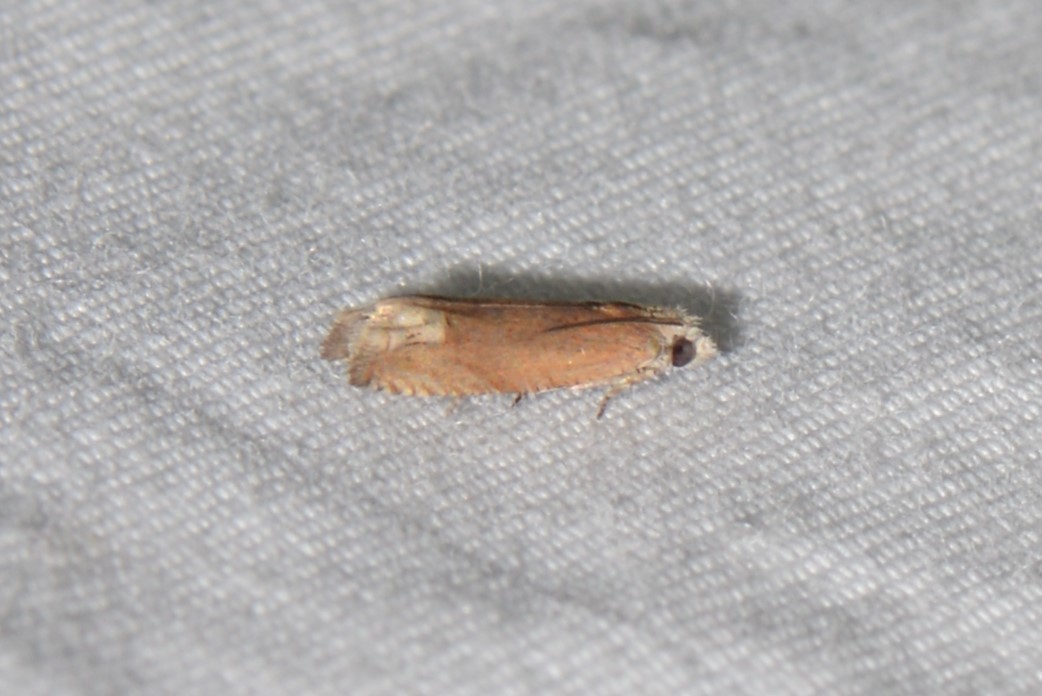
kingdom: Animalia
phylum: Arthropoda
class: Insecta
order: Lepidoptera
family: Tortricidae
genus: Eucosma
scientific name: Eucosma raracana
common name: Reddish eucosma moth
